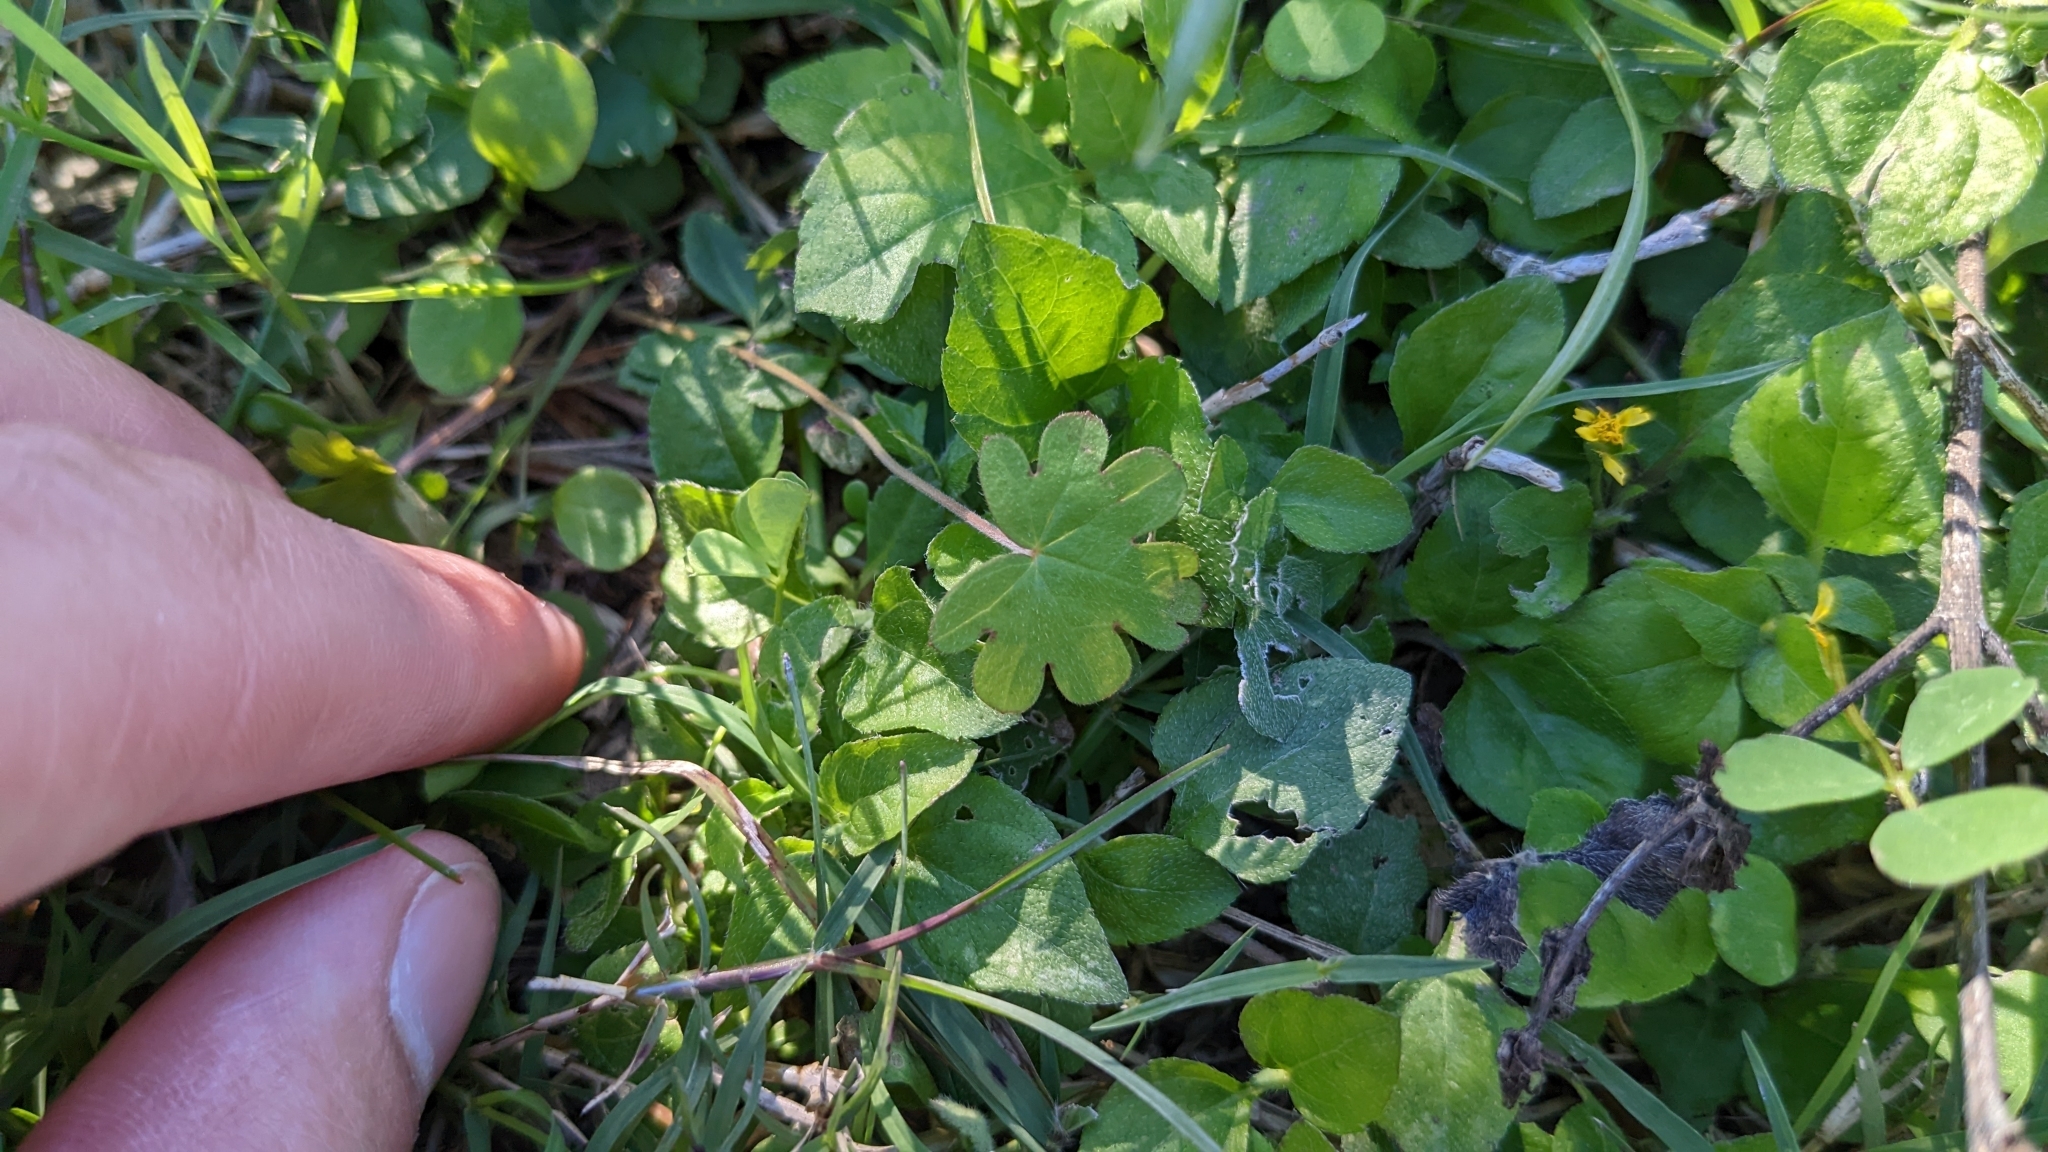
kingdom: Plantae
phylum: Tracheophyta
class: Magnoliopsida
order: Apiales
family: Apiaceae
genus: Bowlesia
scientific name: Bowlesia incana
